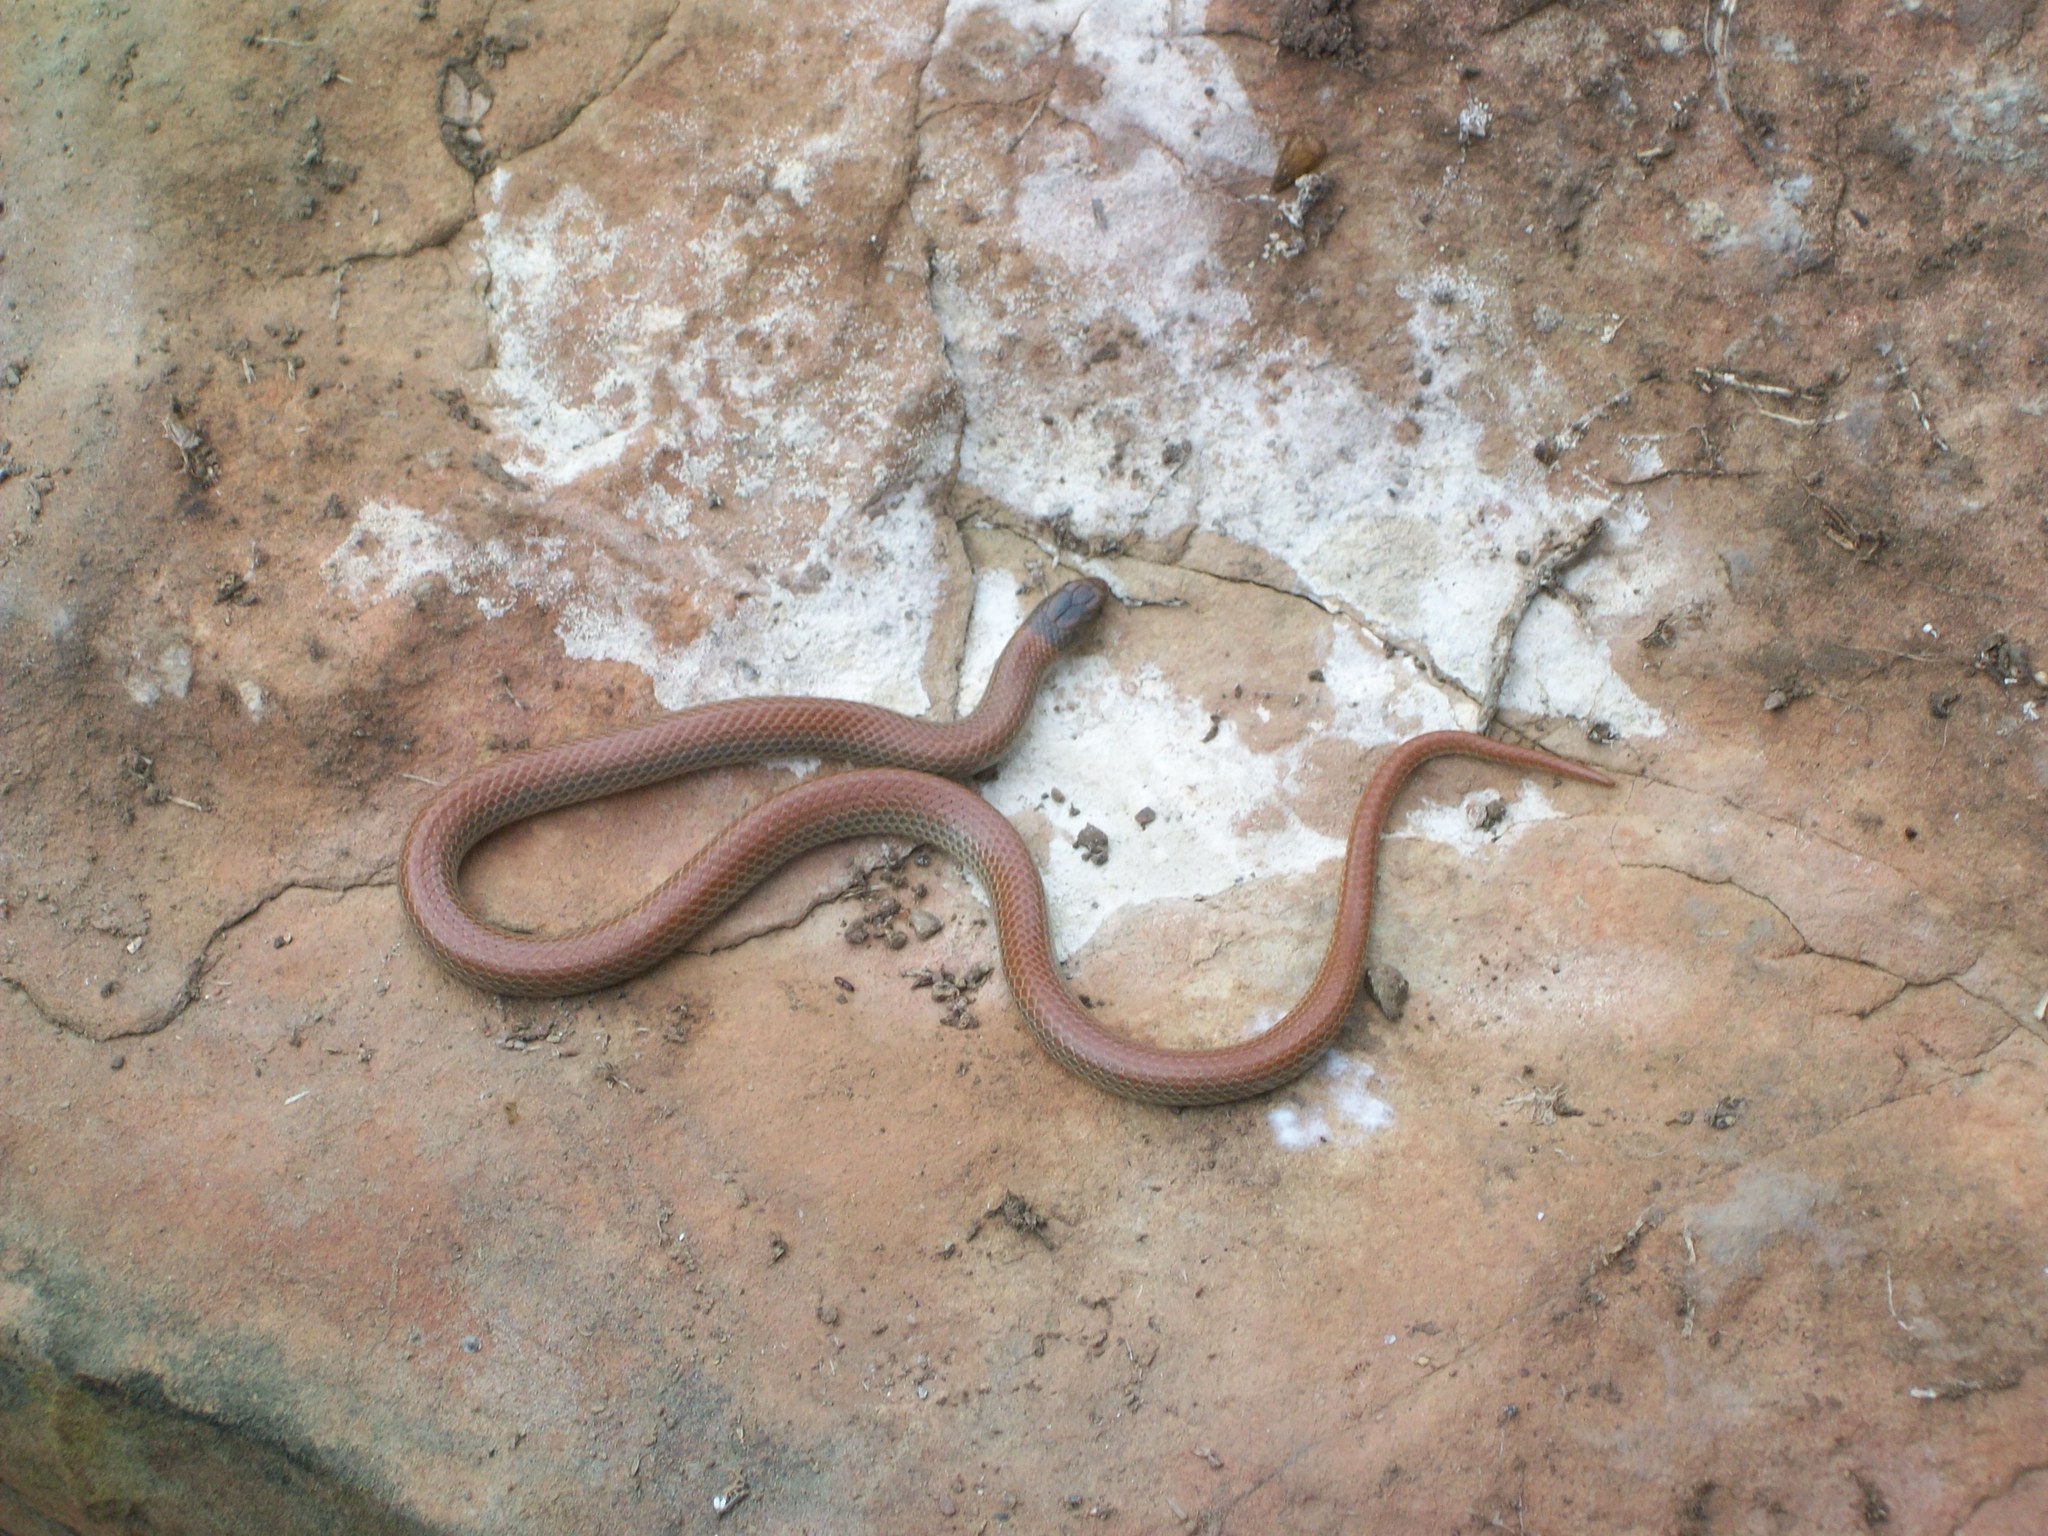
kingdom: Animalia
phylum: Chordata
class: Squamata
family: Colubridae
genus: Sonora
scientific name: Sonora semiannulata
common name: Ground snake
